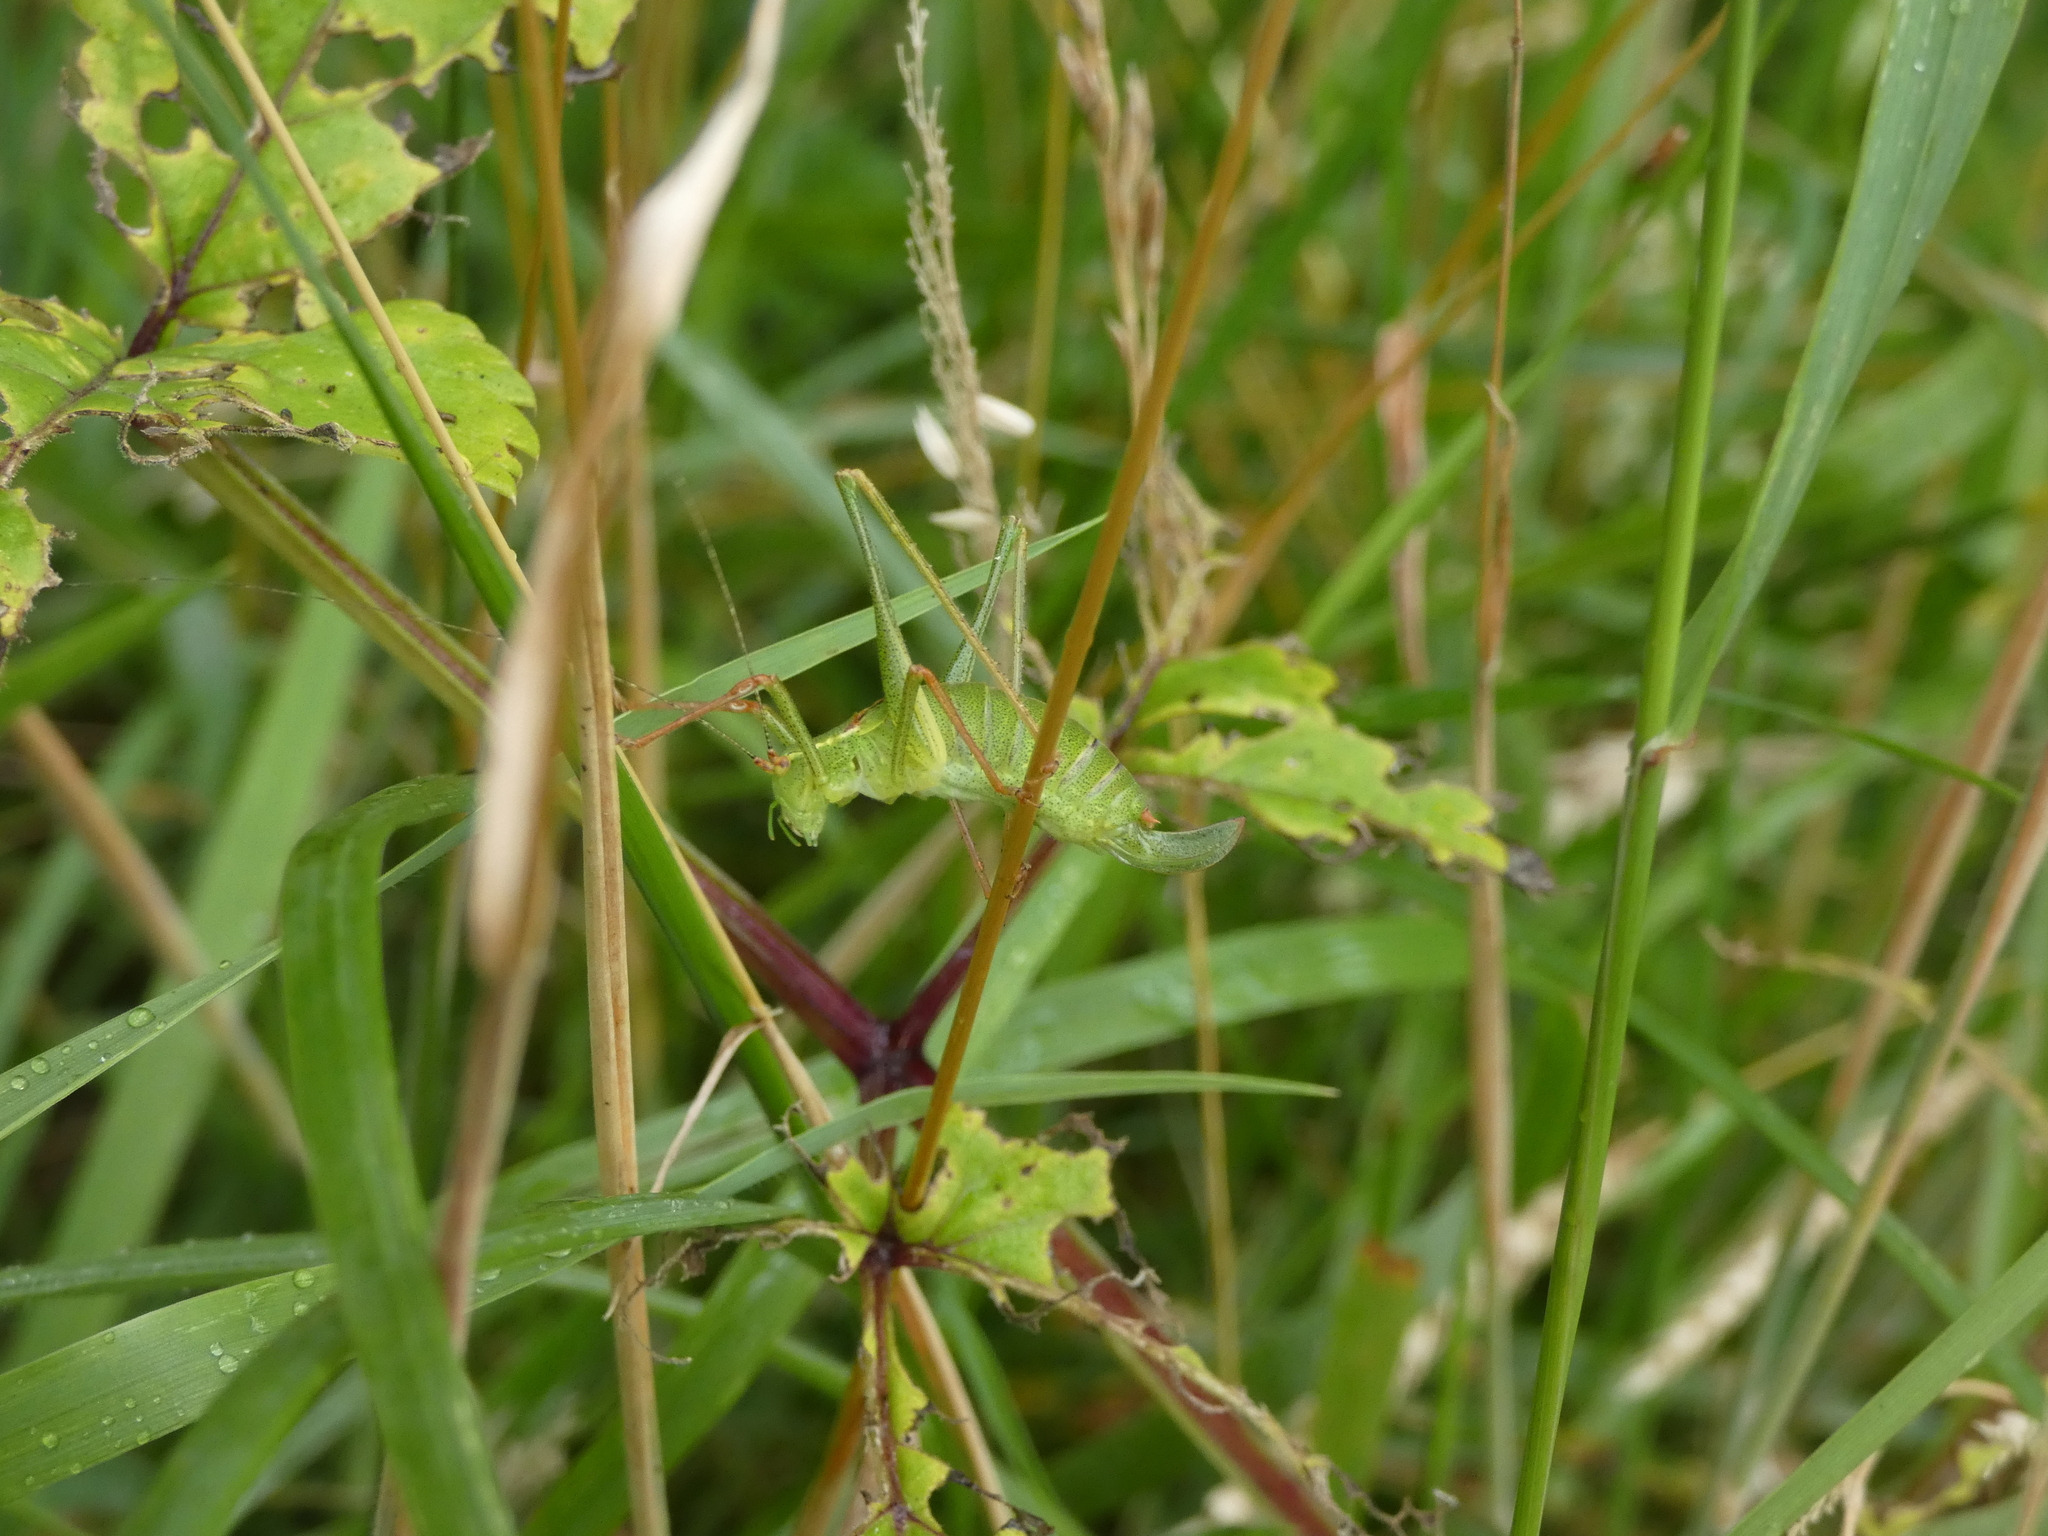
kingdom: Animalia
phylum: Arthropoda
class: Insecta
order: Orthoptera
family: Tettigoniidae
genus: Leptophyes
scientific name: Leptophyes punctatissima
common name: Speckled bush-cricket
